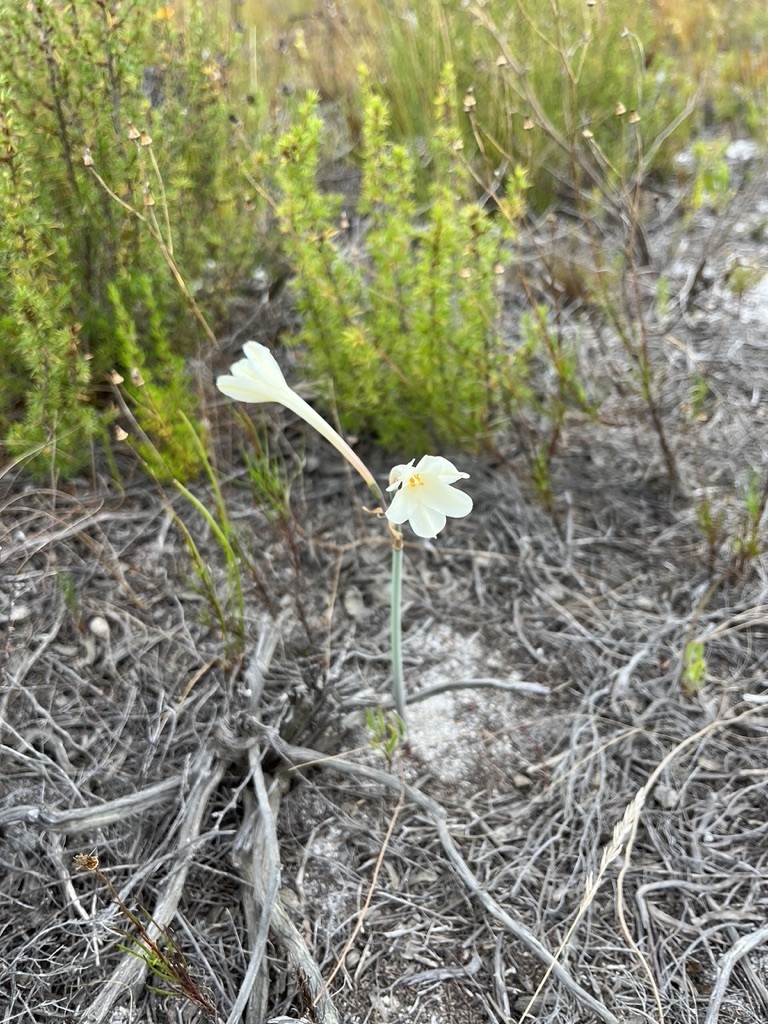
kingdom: Plantae
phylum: Tracheophyta
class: Liliopsida
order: Asparagales
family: Amaryllidaceae
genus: Cyrtanthus
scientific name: Cyrtanthus leucanthus
